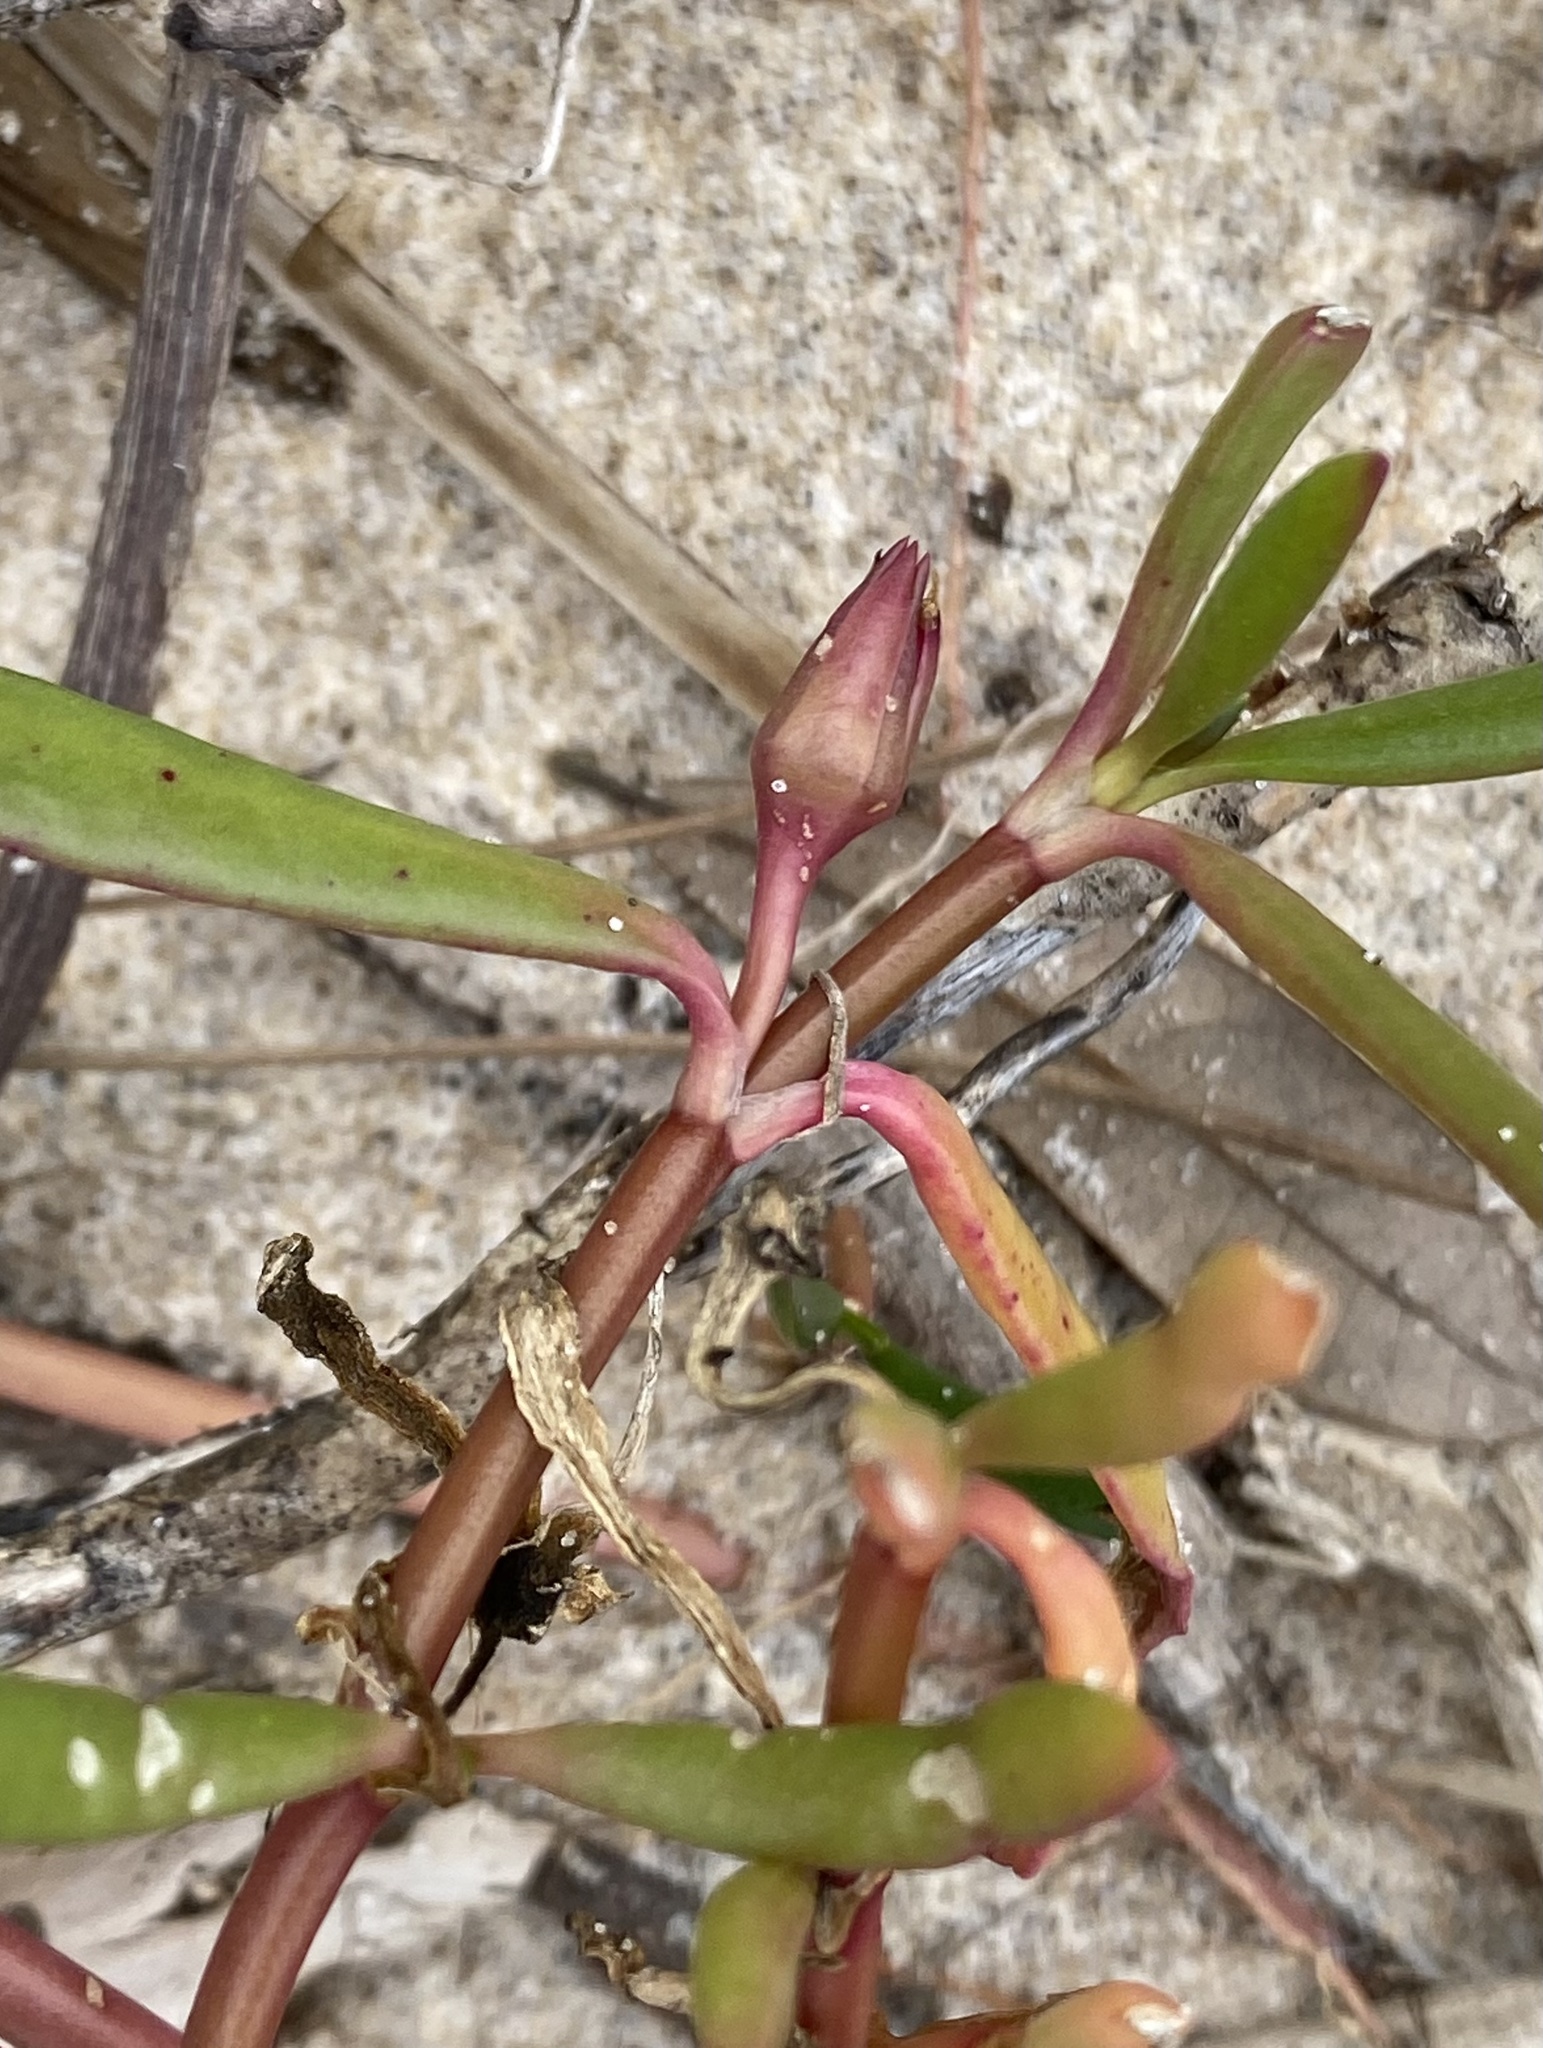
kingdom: Plantae
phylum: Tracheophyta
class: Magnoliopsida
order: Caryophyllales
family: Aizoaceae
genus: Sesuvium
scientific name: Sesuvium portulacastrum
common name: Sea-purslane
